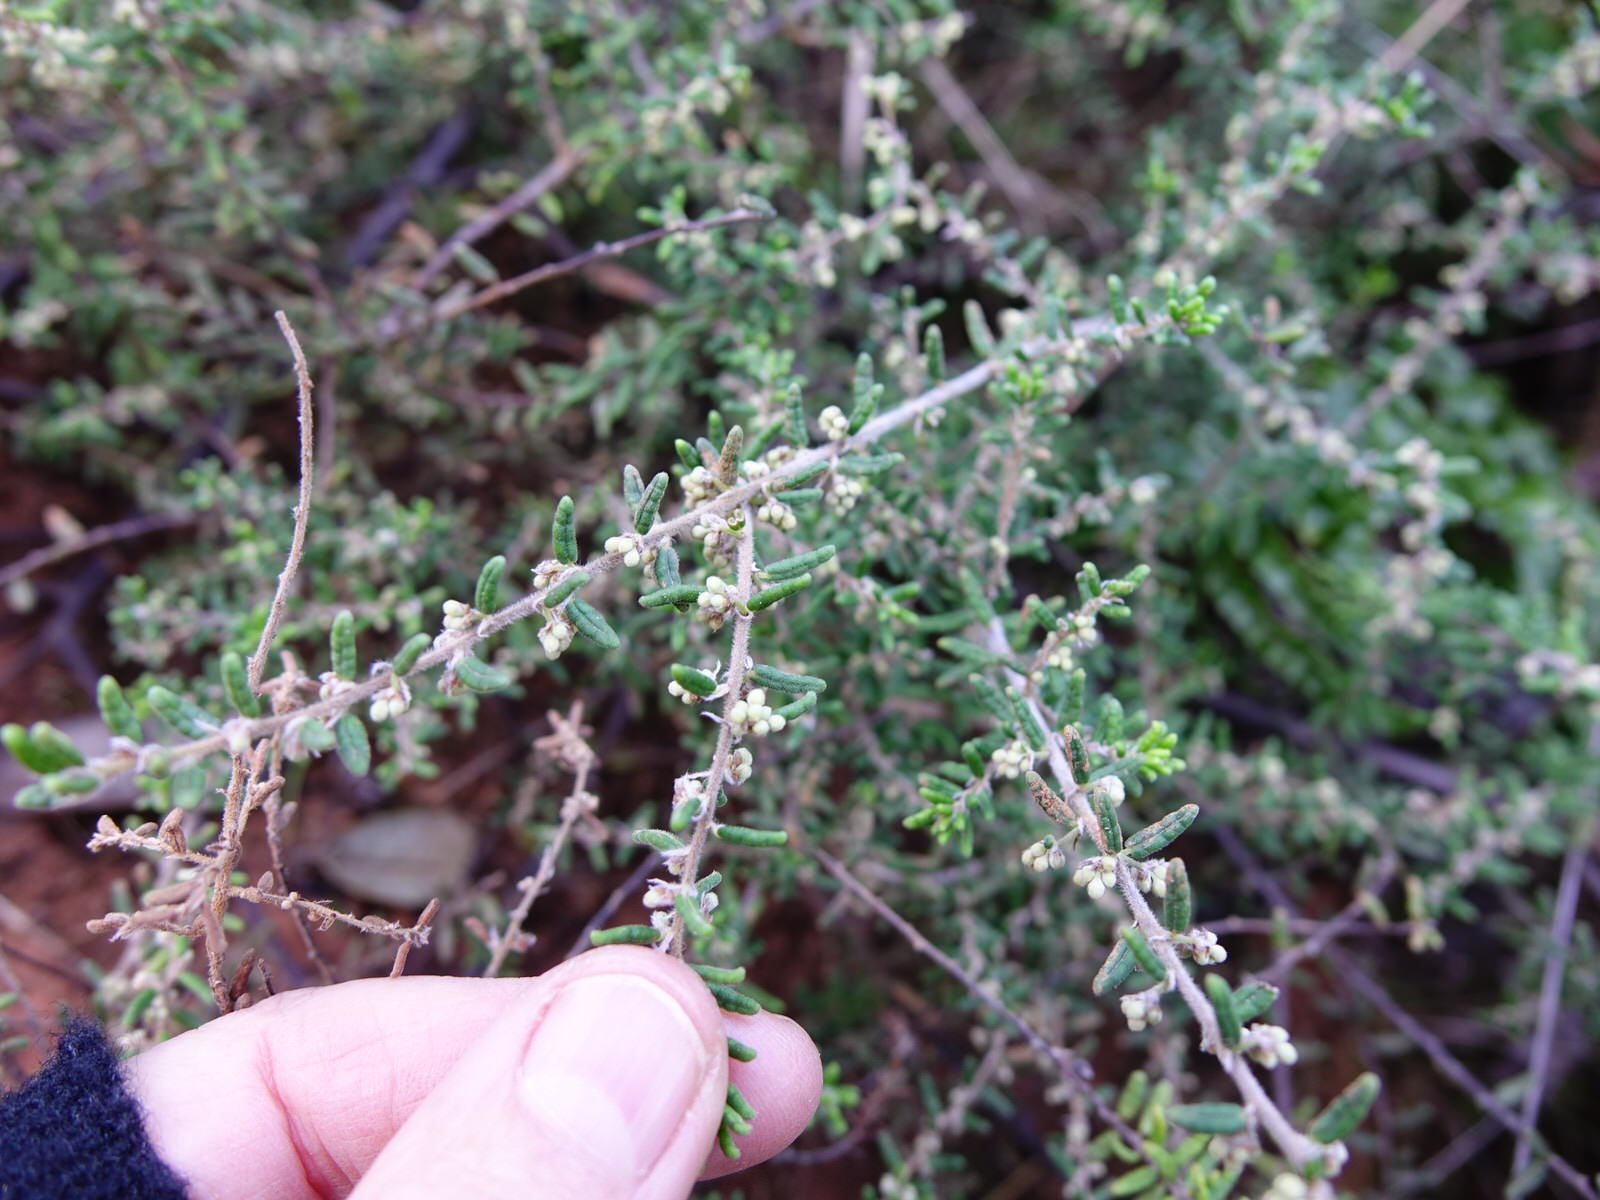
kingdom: Plantae
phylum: Tracheophyta
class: Magnoliopsida
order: Rosales
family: Rhamnaceae
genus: Pomaderris
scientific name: Pomaderris amoena
